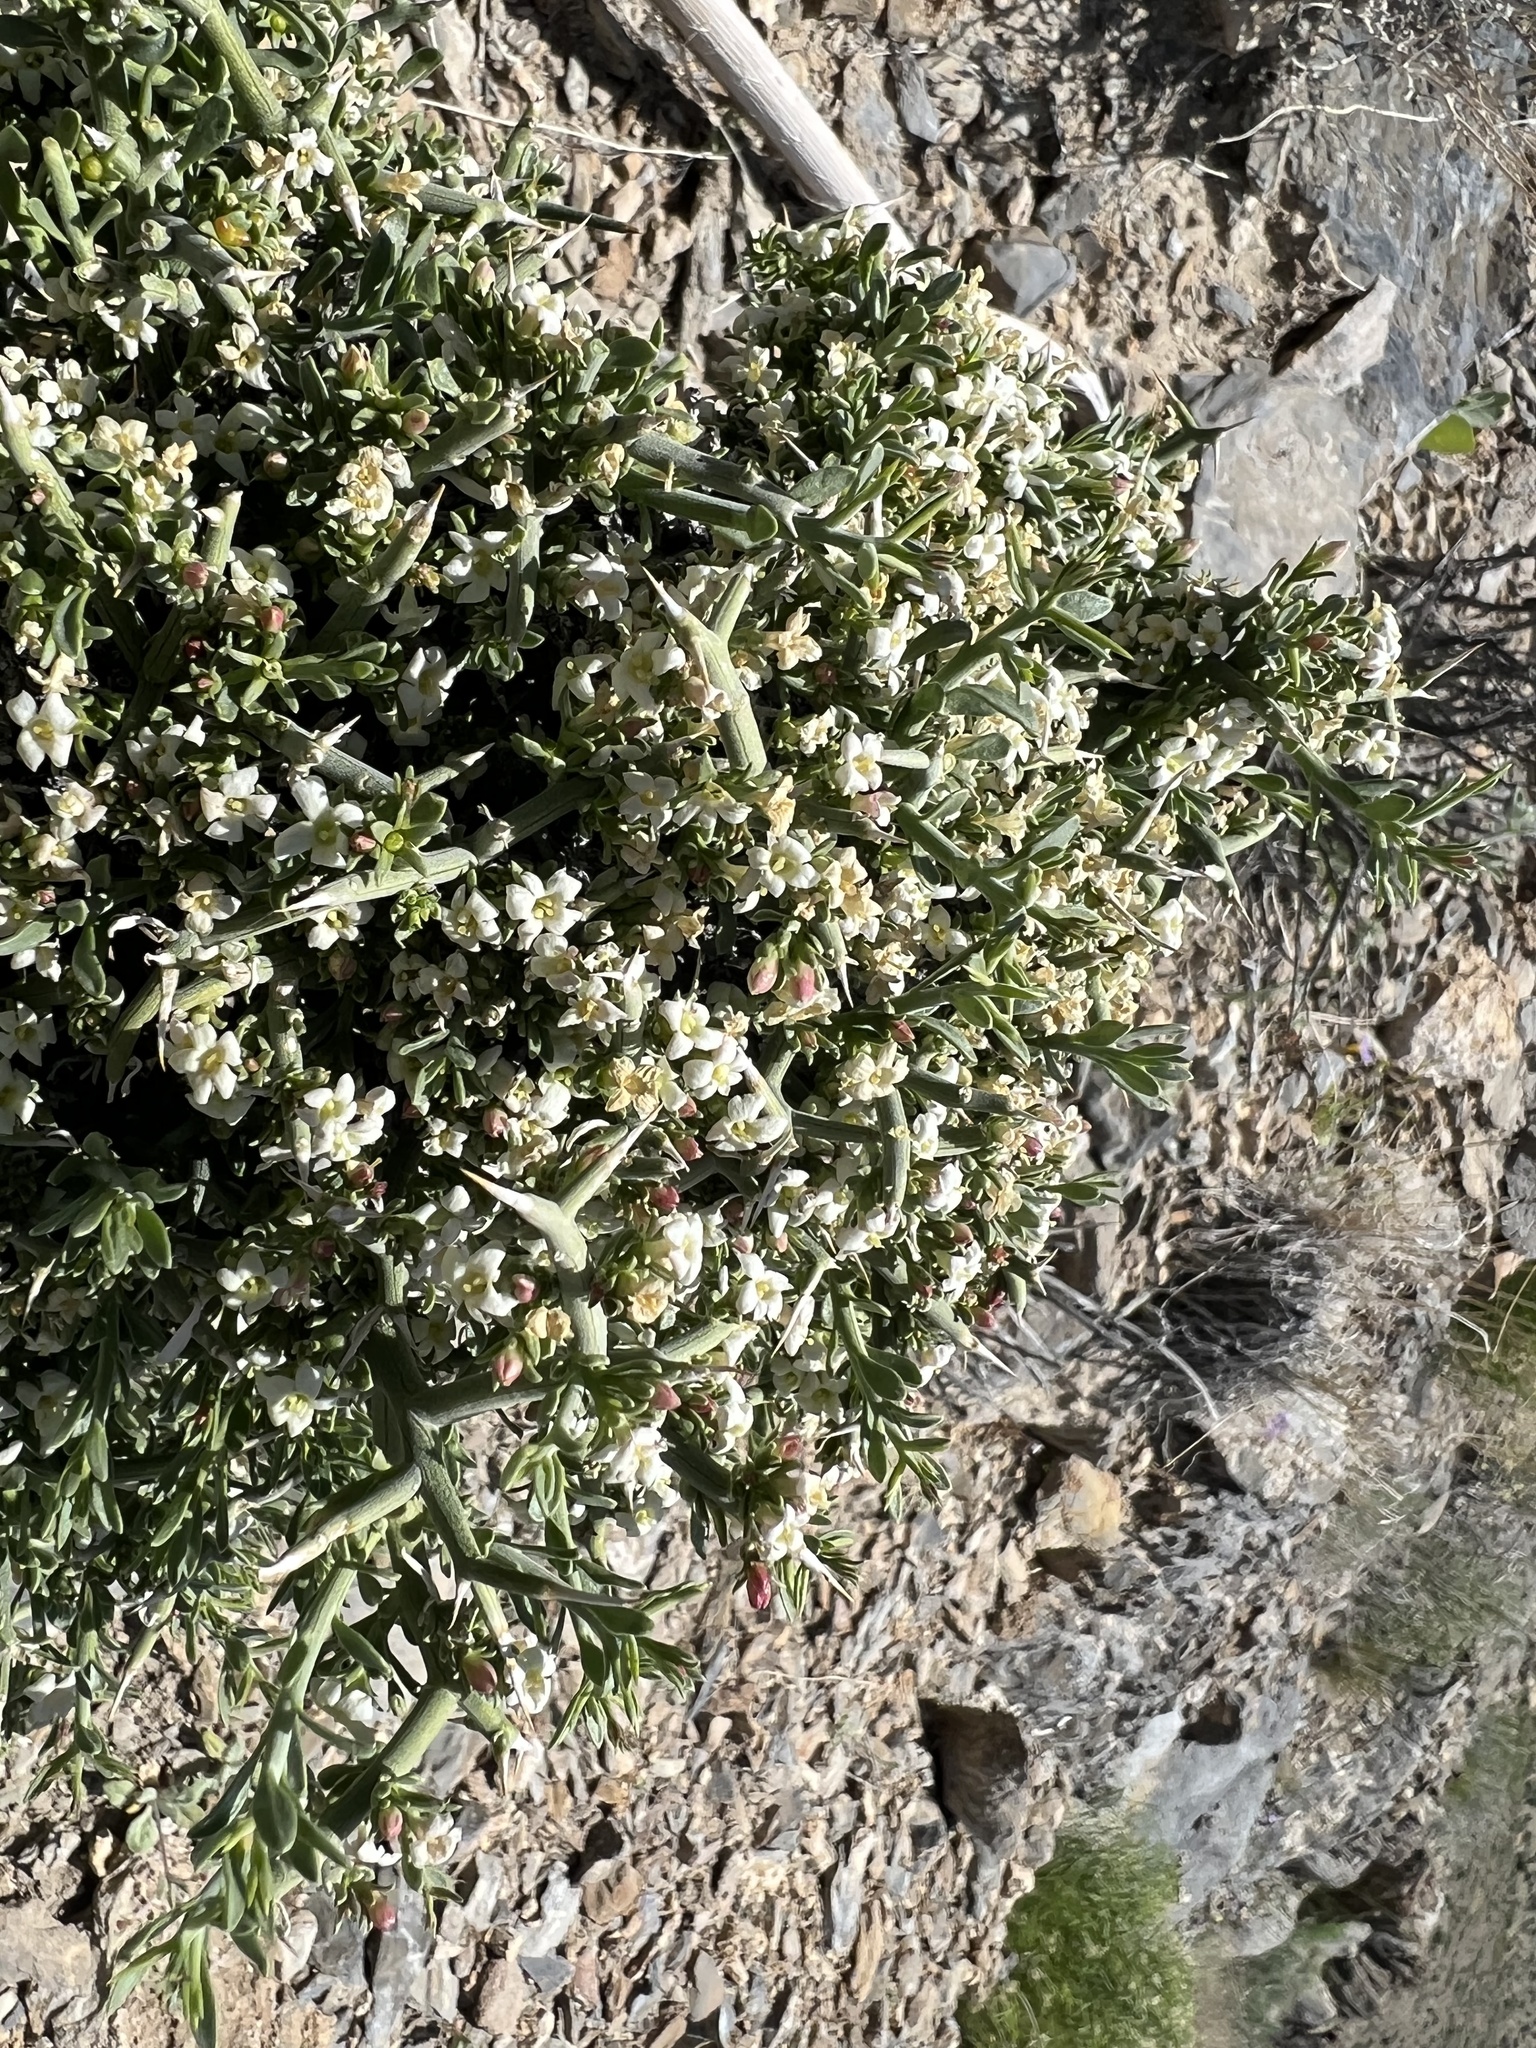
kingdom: Plantae
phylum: Tracheophyta
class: Magnoliopsida
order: Lamiales
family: Oleaceae
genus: Menodora
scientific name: Menodora spinescens
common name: Spiny menodora
